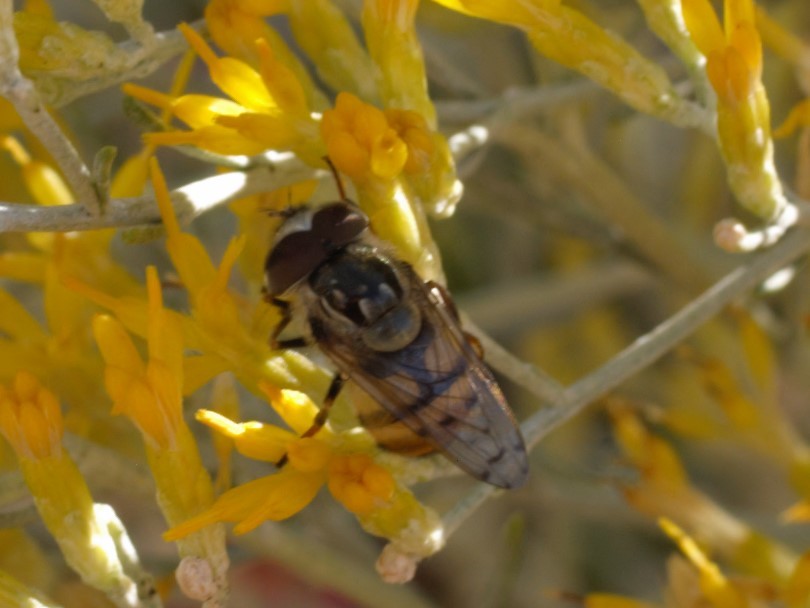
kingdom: Animalia
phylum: Arthropoda
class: Insecta
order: Diptera
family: Syrphidae
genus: Copestylum
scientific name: Copestylum satur
